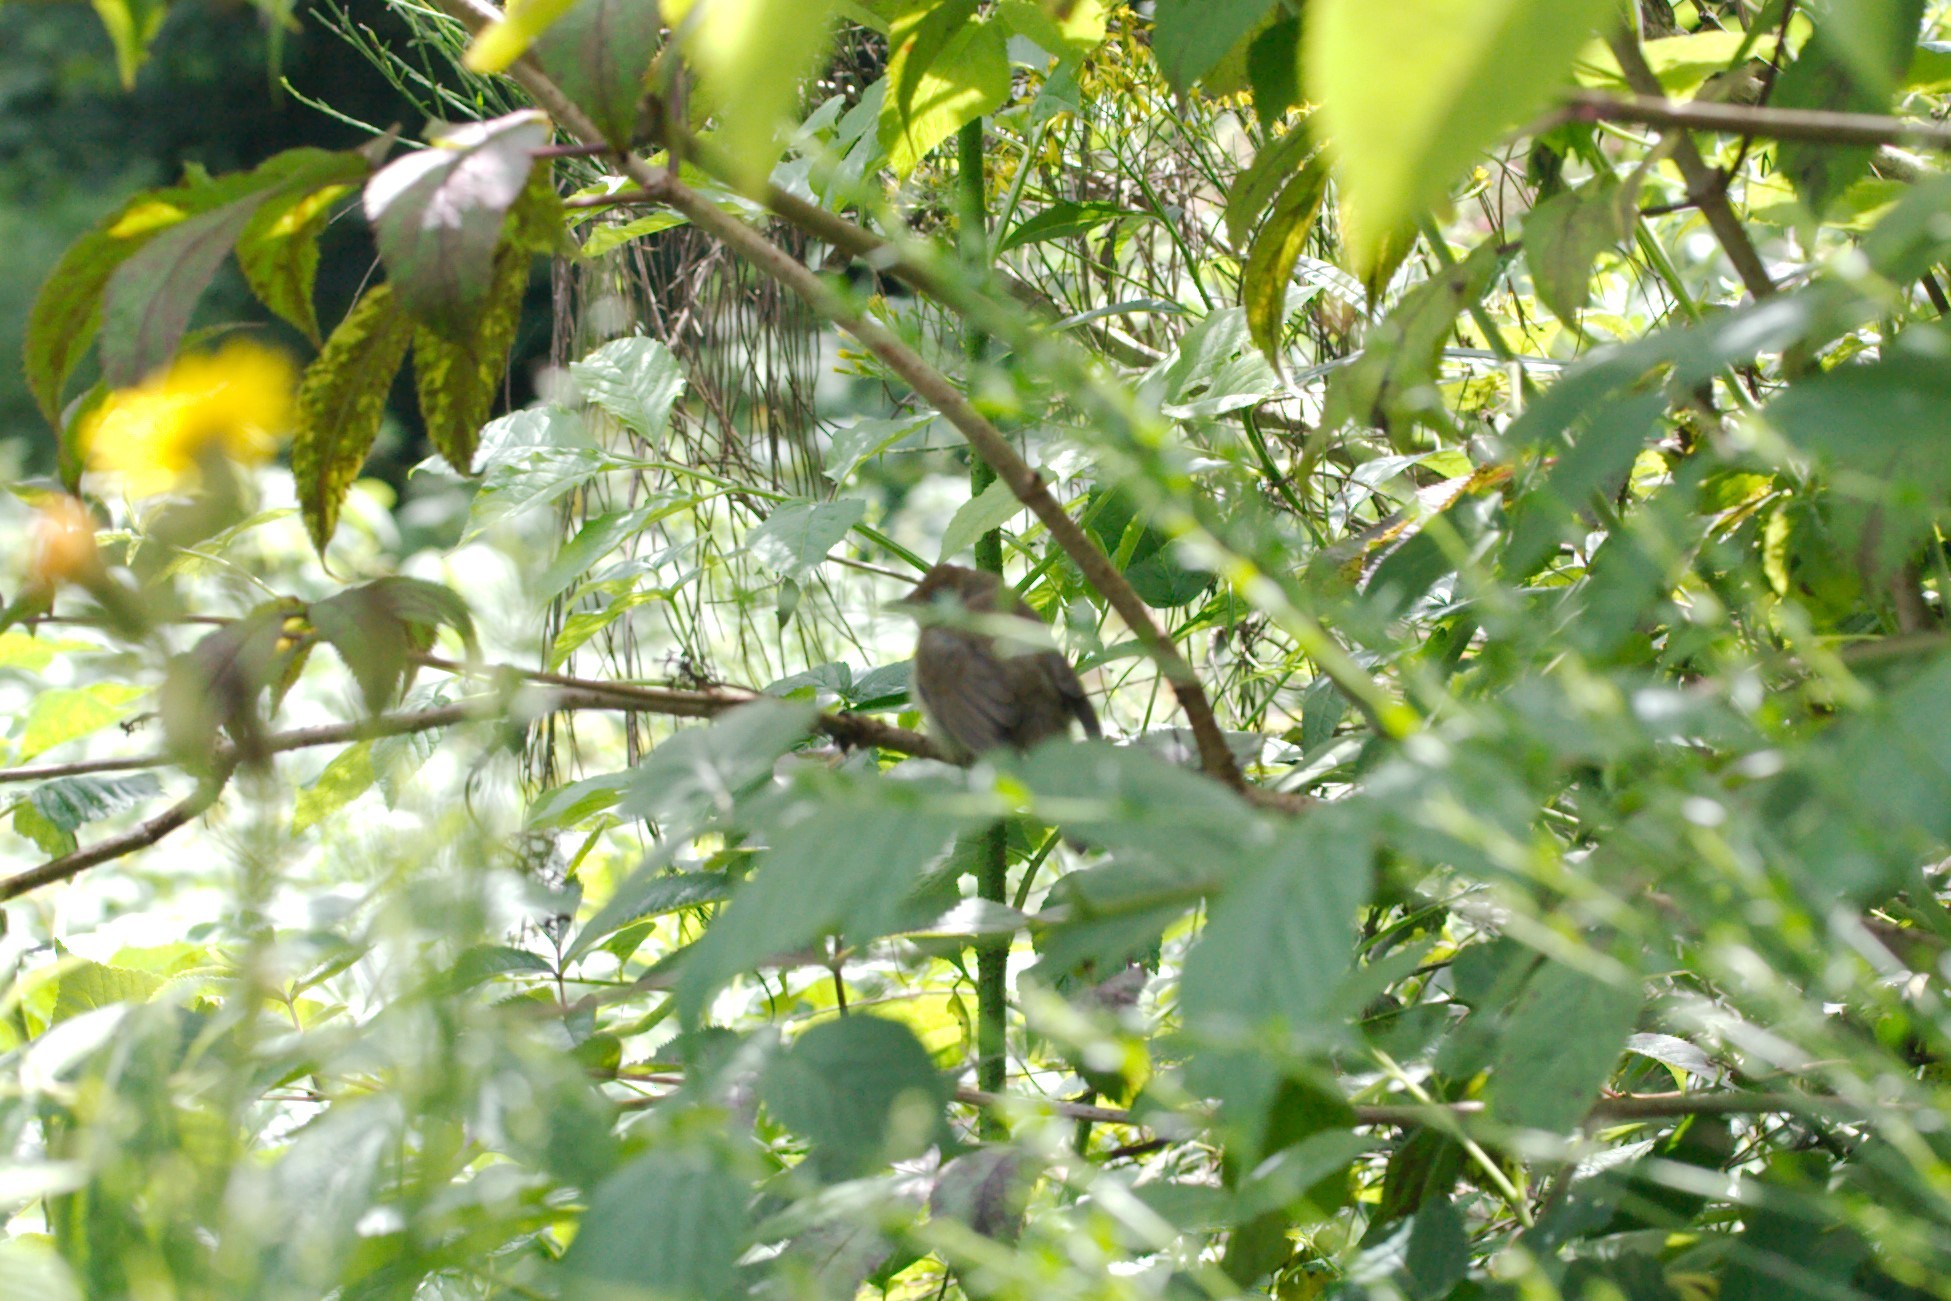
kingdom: Animalia
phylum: Chordata
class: Aves
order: Passeriformes
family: Sylviidae
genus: Sylvia
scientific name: Sylvia atricapilla
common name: Eurasian blackcap
